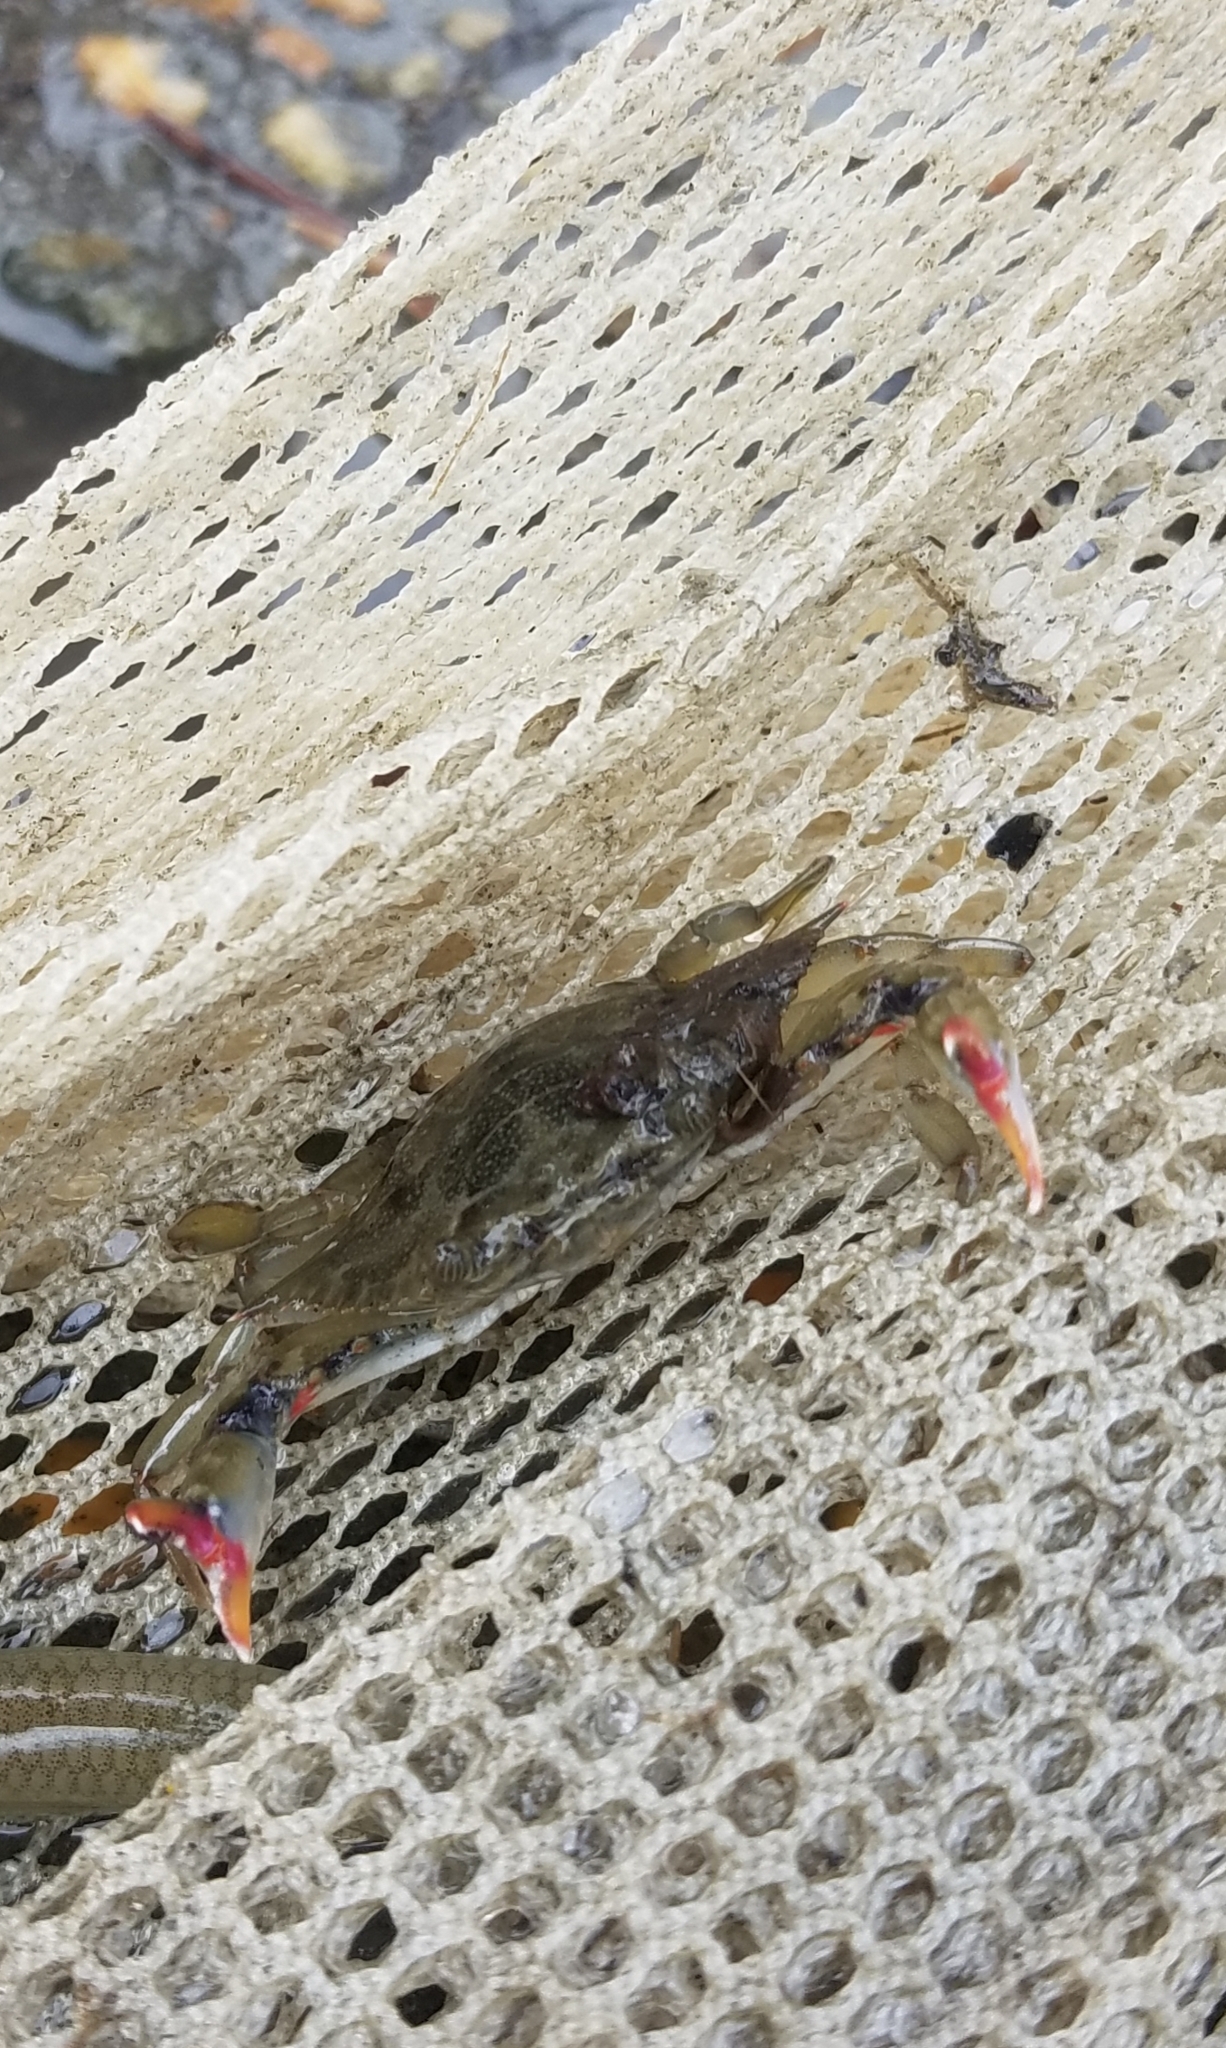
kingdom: Animalia
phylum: Arthropoda
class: Malacostraca
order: Decapoda
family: Portunidae
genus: Callinectes
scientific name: Callinectes sapidus
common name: Blue crab
